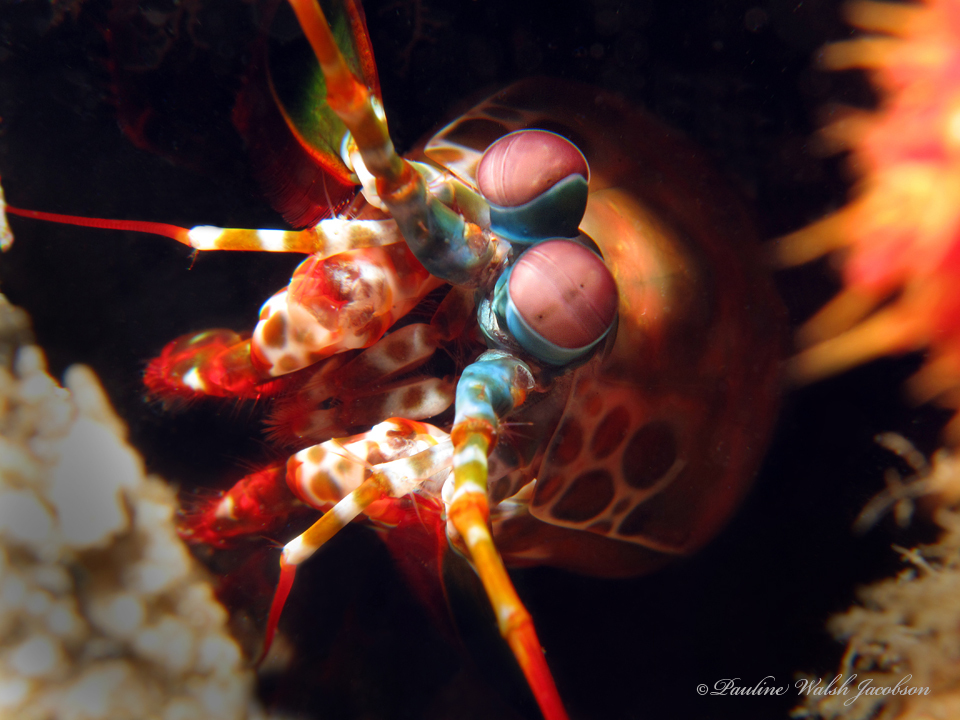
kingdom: Animalia
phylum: Arthropoda
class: Malacostraca
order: Stomatopoda
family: Odontodactylidae
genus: Odontodactylus
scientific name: Odontodactylus scyllarus
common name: Peacock mantis shrimp
